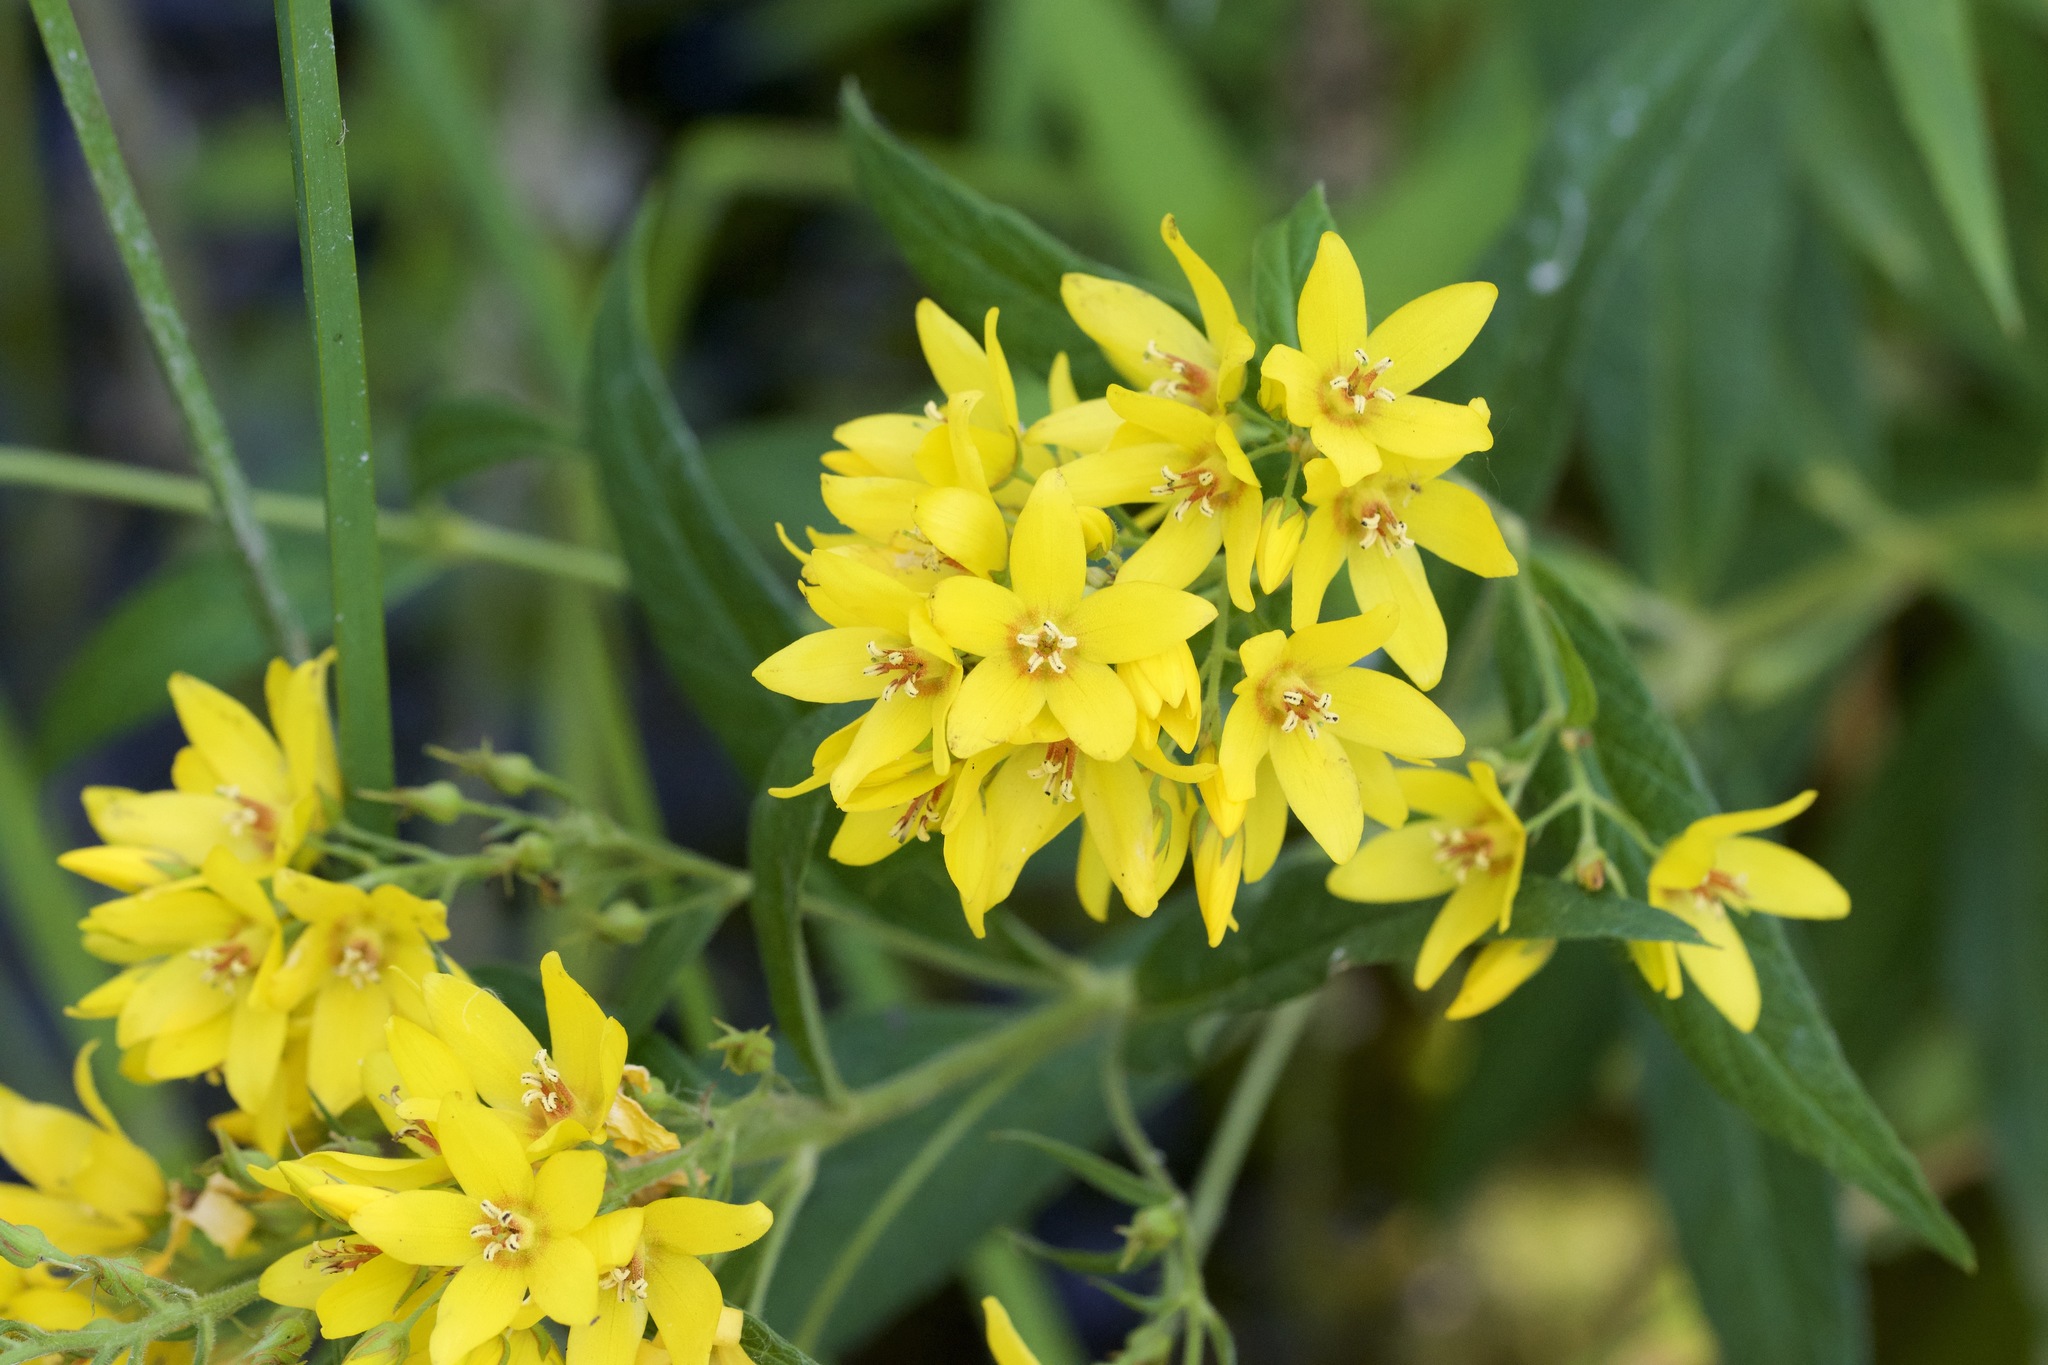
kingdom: Plantae
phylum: Tracheophyta
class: Magnoliopsida
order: Ericales
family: Primulaceae
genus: Lysimachia
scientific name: Lysimachia vulgaris
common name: Yellow loosestrife
